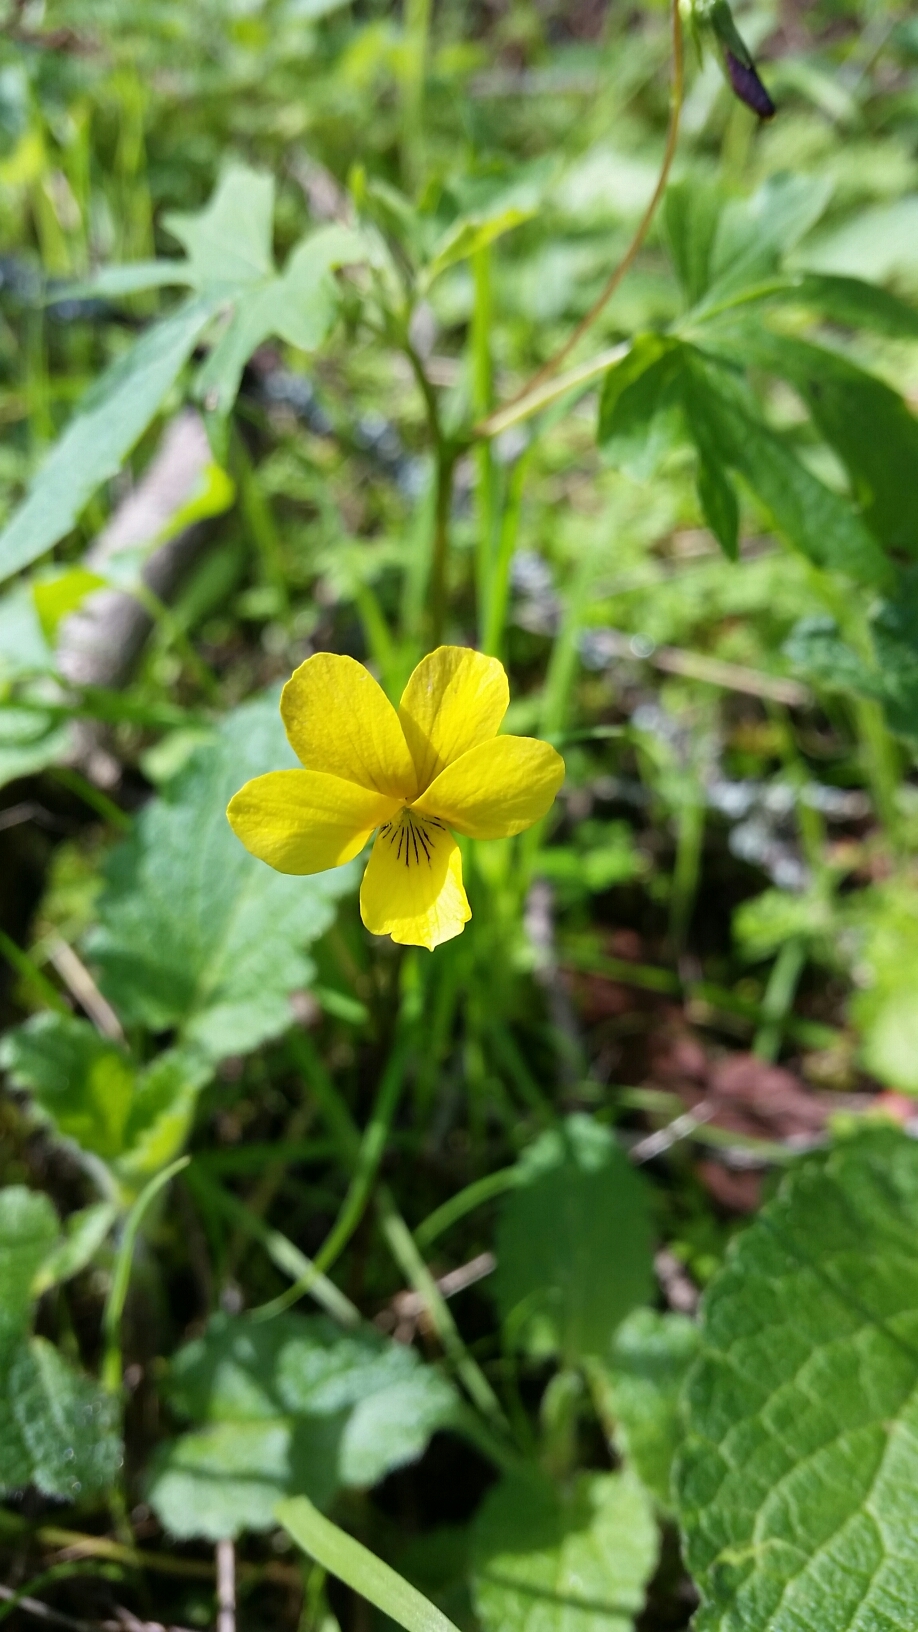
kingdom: Plantae
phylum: Tracheophyta
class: Magnoliopsida
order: Malpighiales
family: Violaceae
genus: Viola
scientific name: Viola lobata
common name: Pine violet
